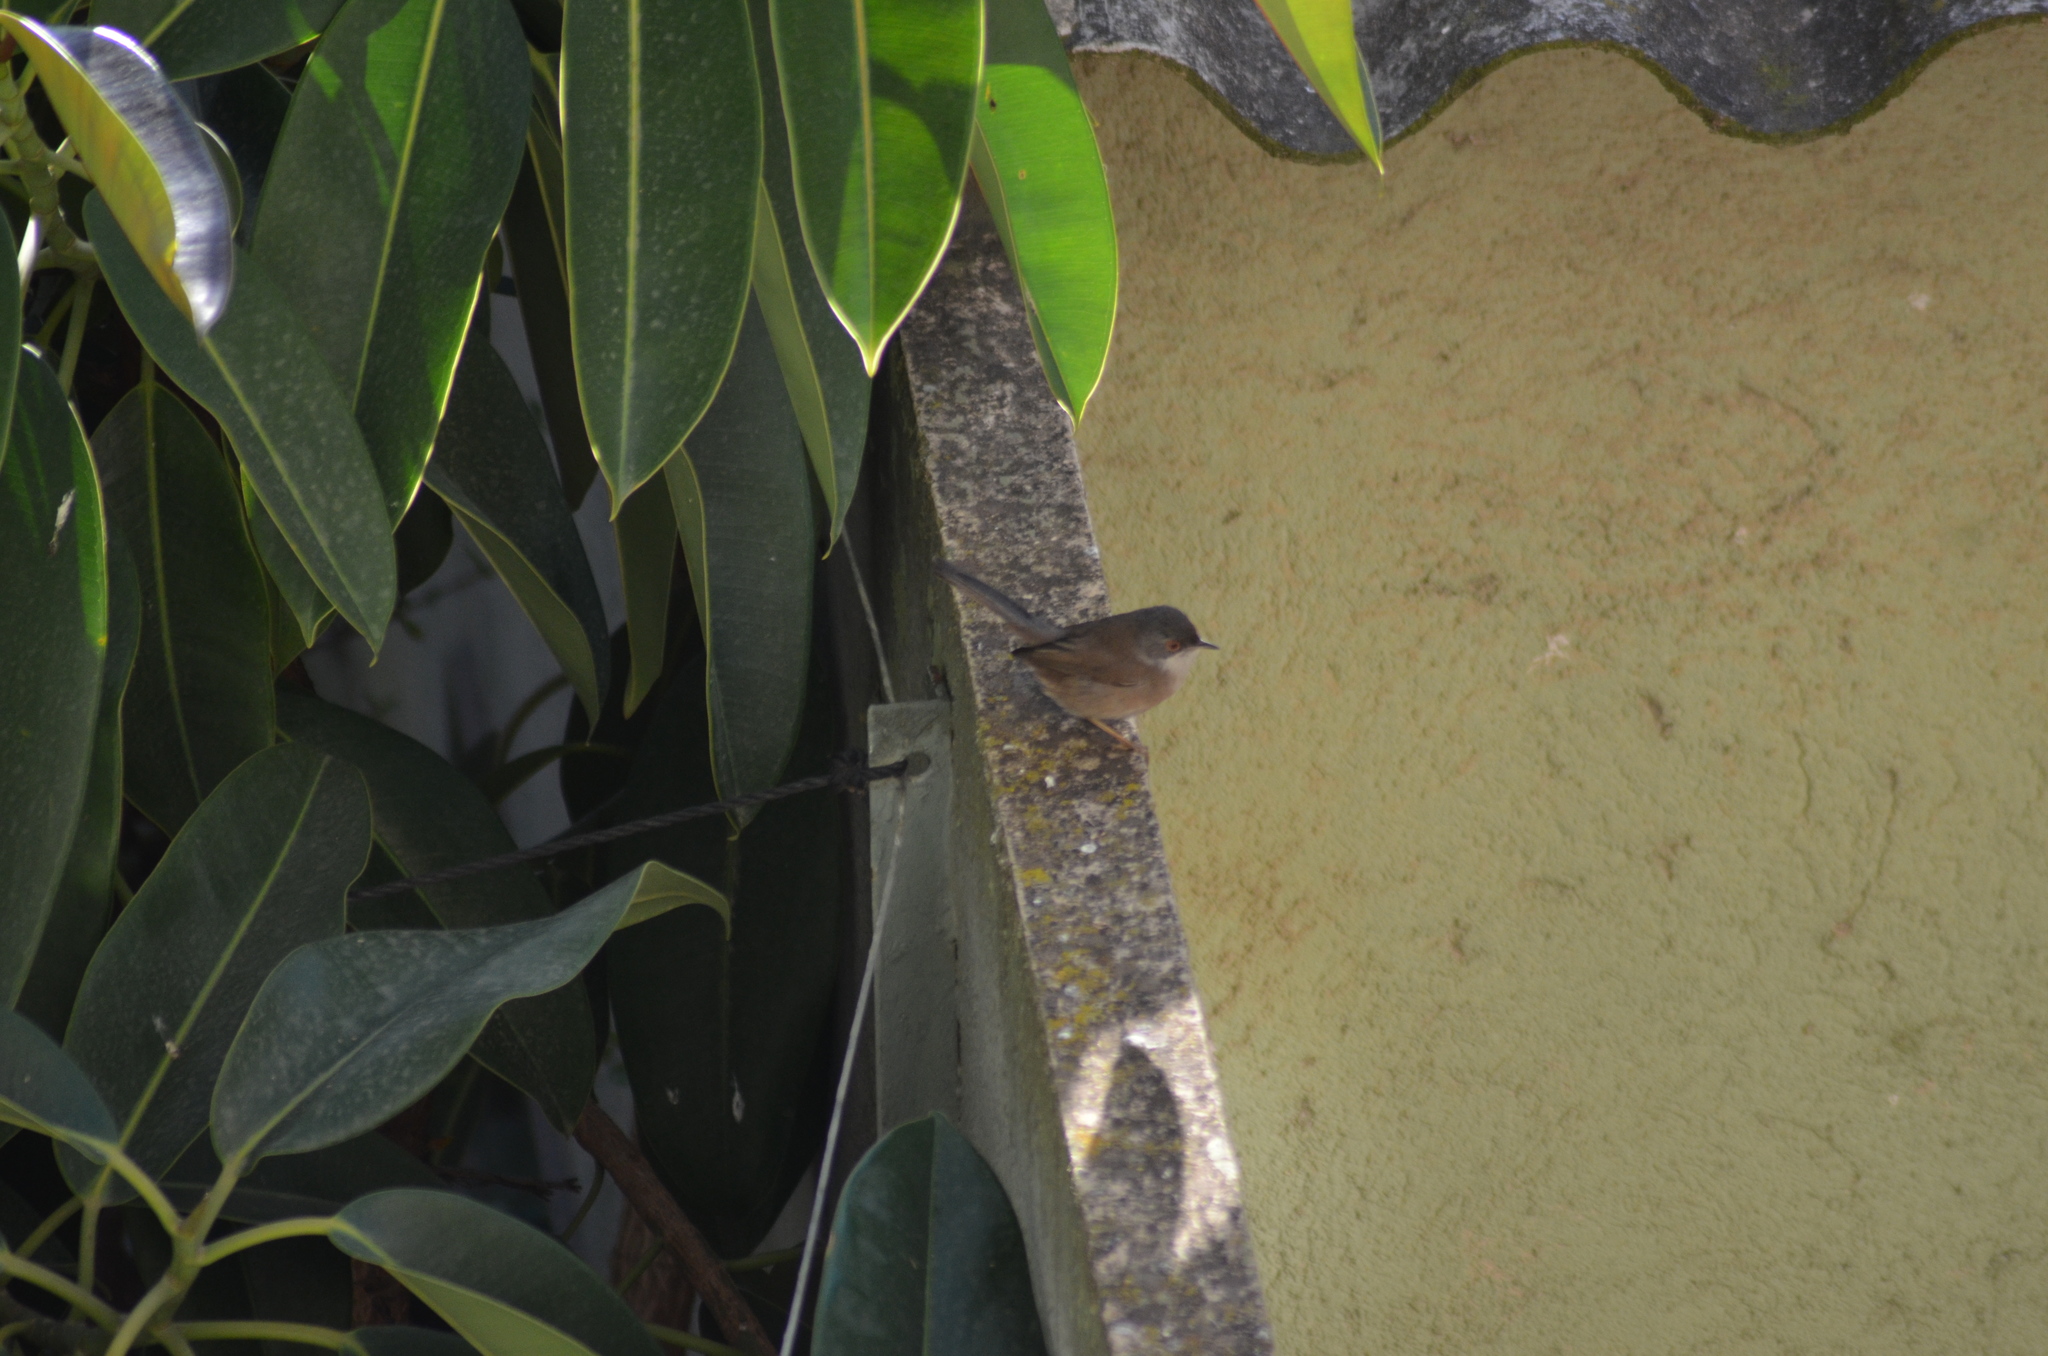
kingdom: Animalia
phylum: Chordata
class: Aves
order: Passeriformes
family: Sylviidae
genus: Curruca
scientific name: Curruca melanocephala
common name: Sardinian warbler
